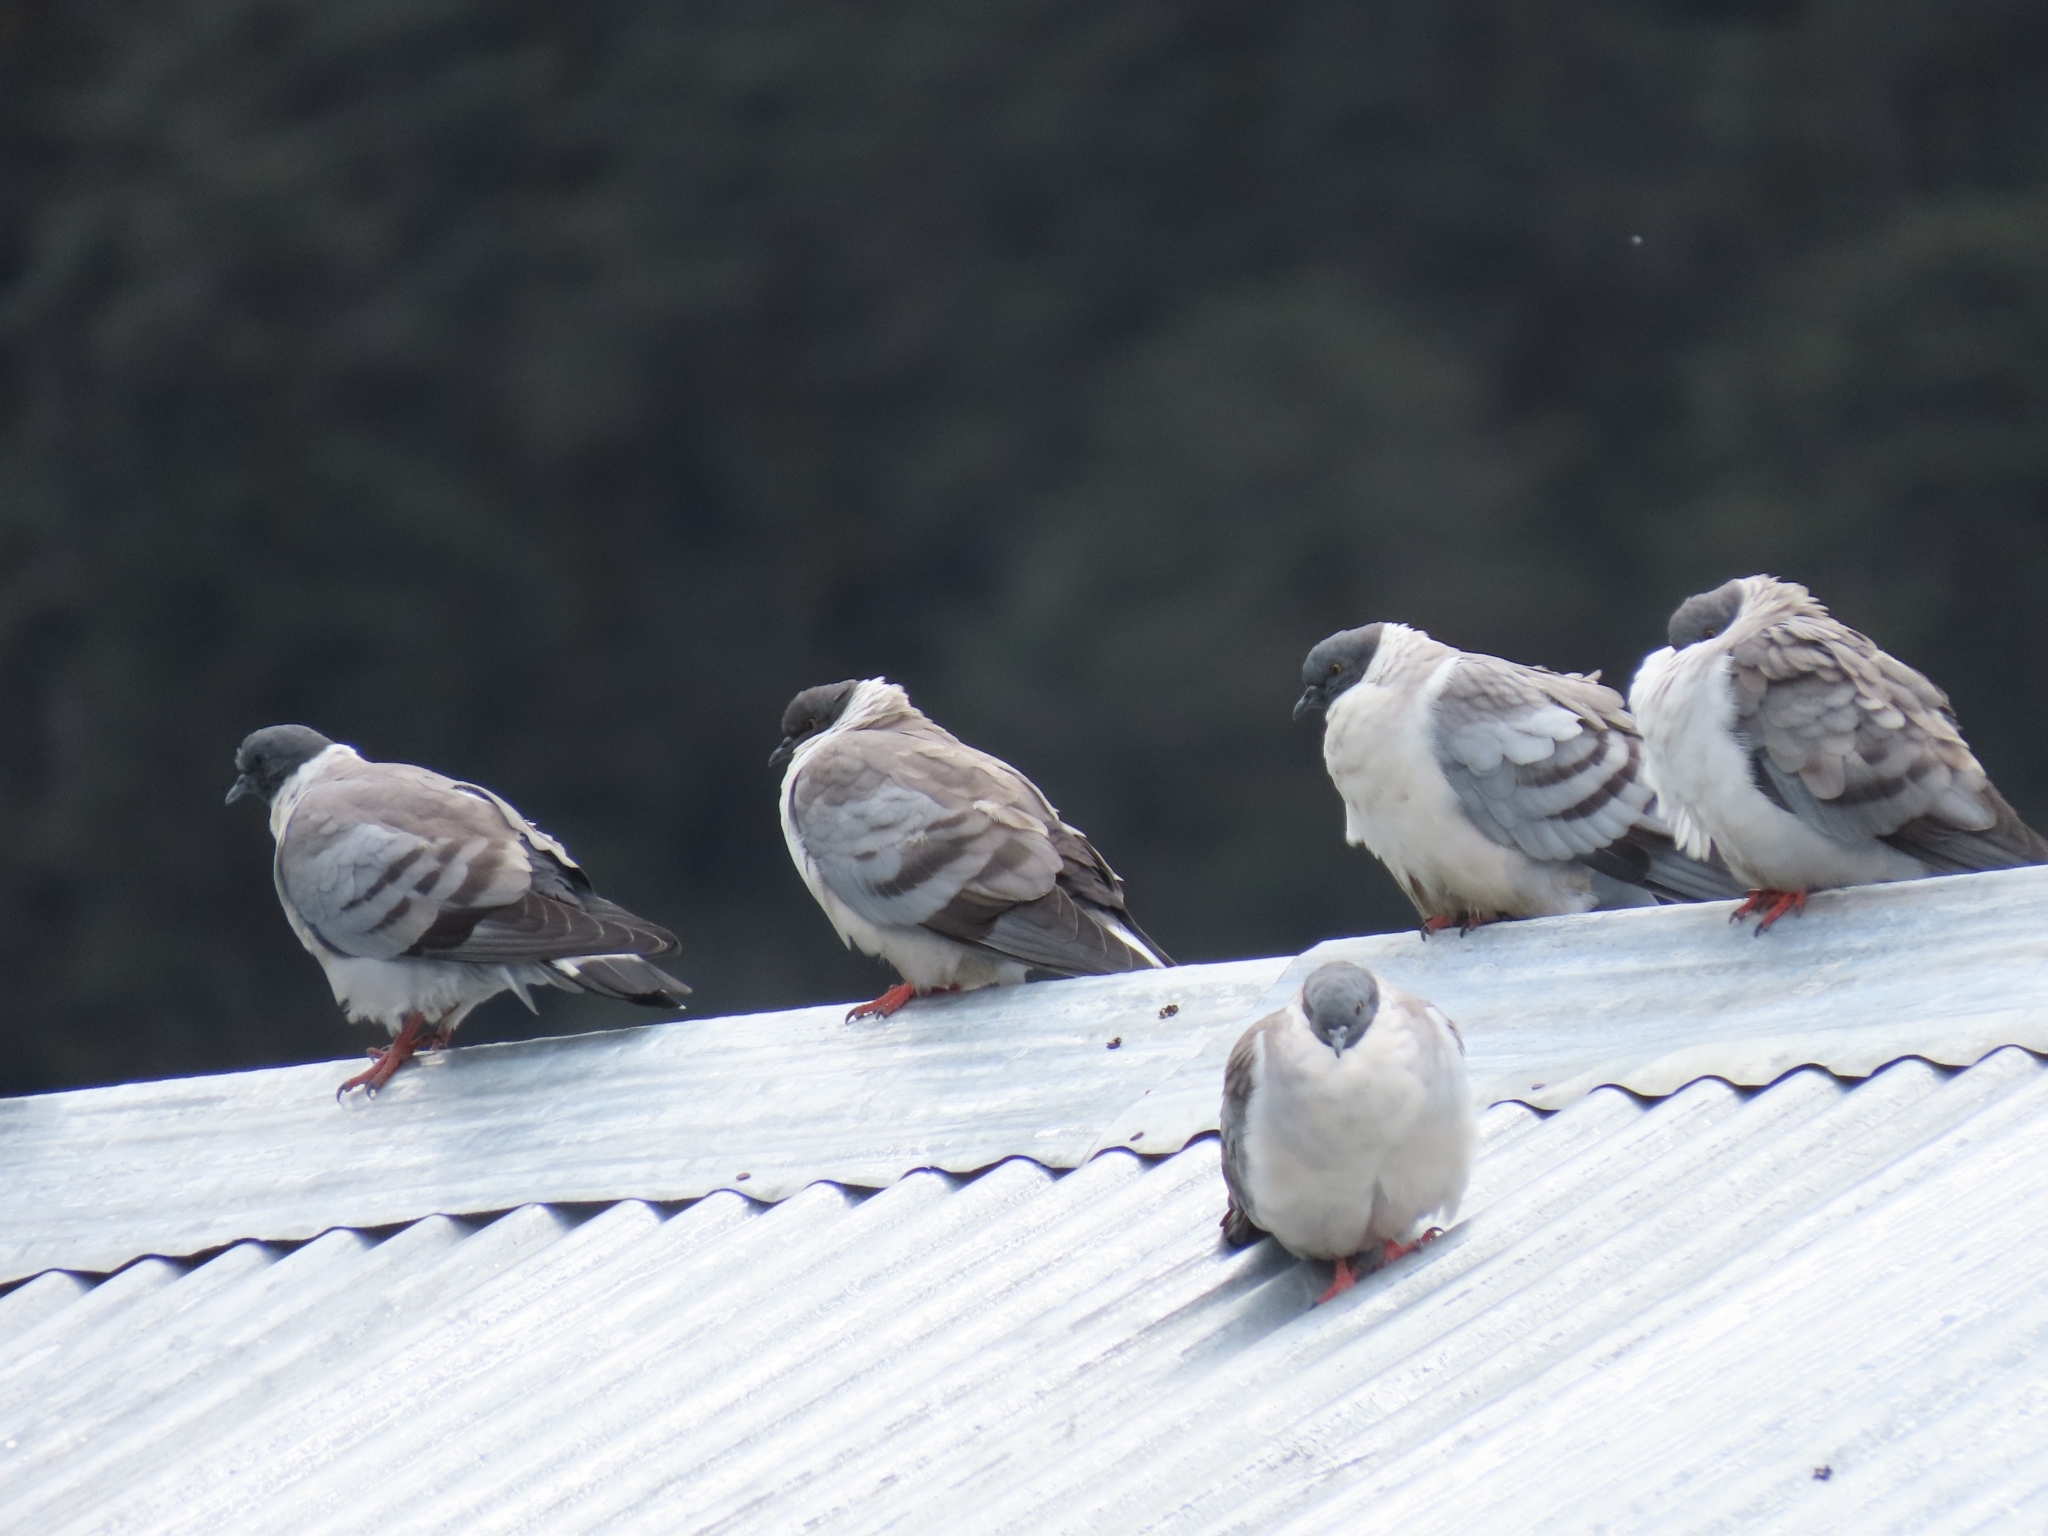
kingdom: Animalia
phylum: Chordata
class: Aves
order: Columbiformes
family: Columbidae
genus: Columba
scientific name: Columba leuconota
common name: Snow pigeon
